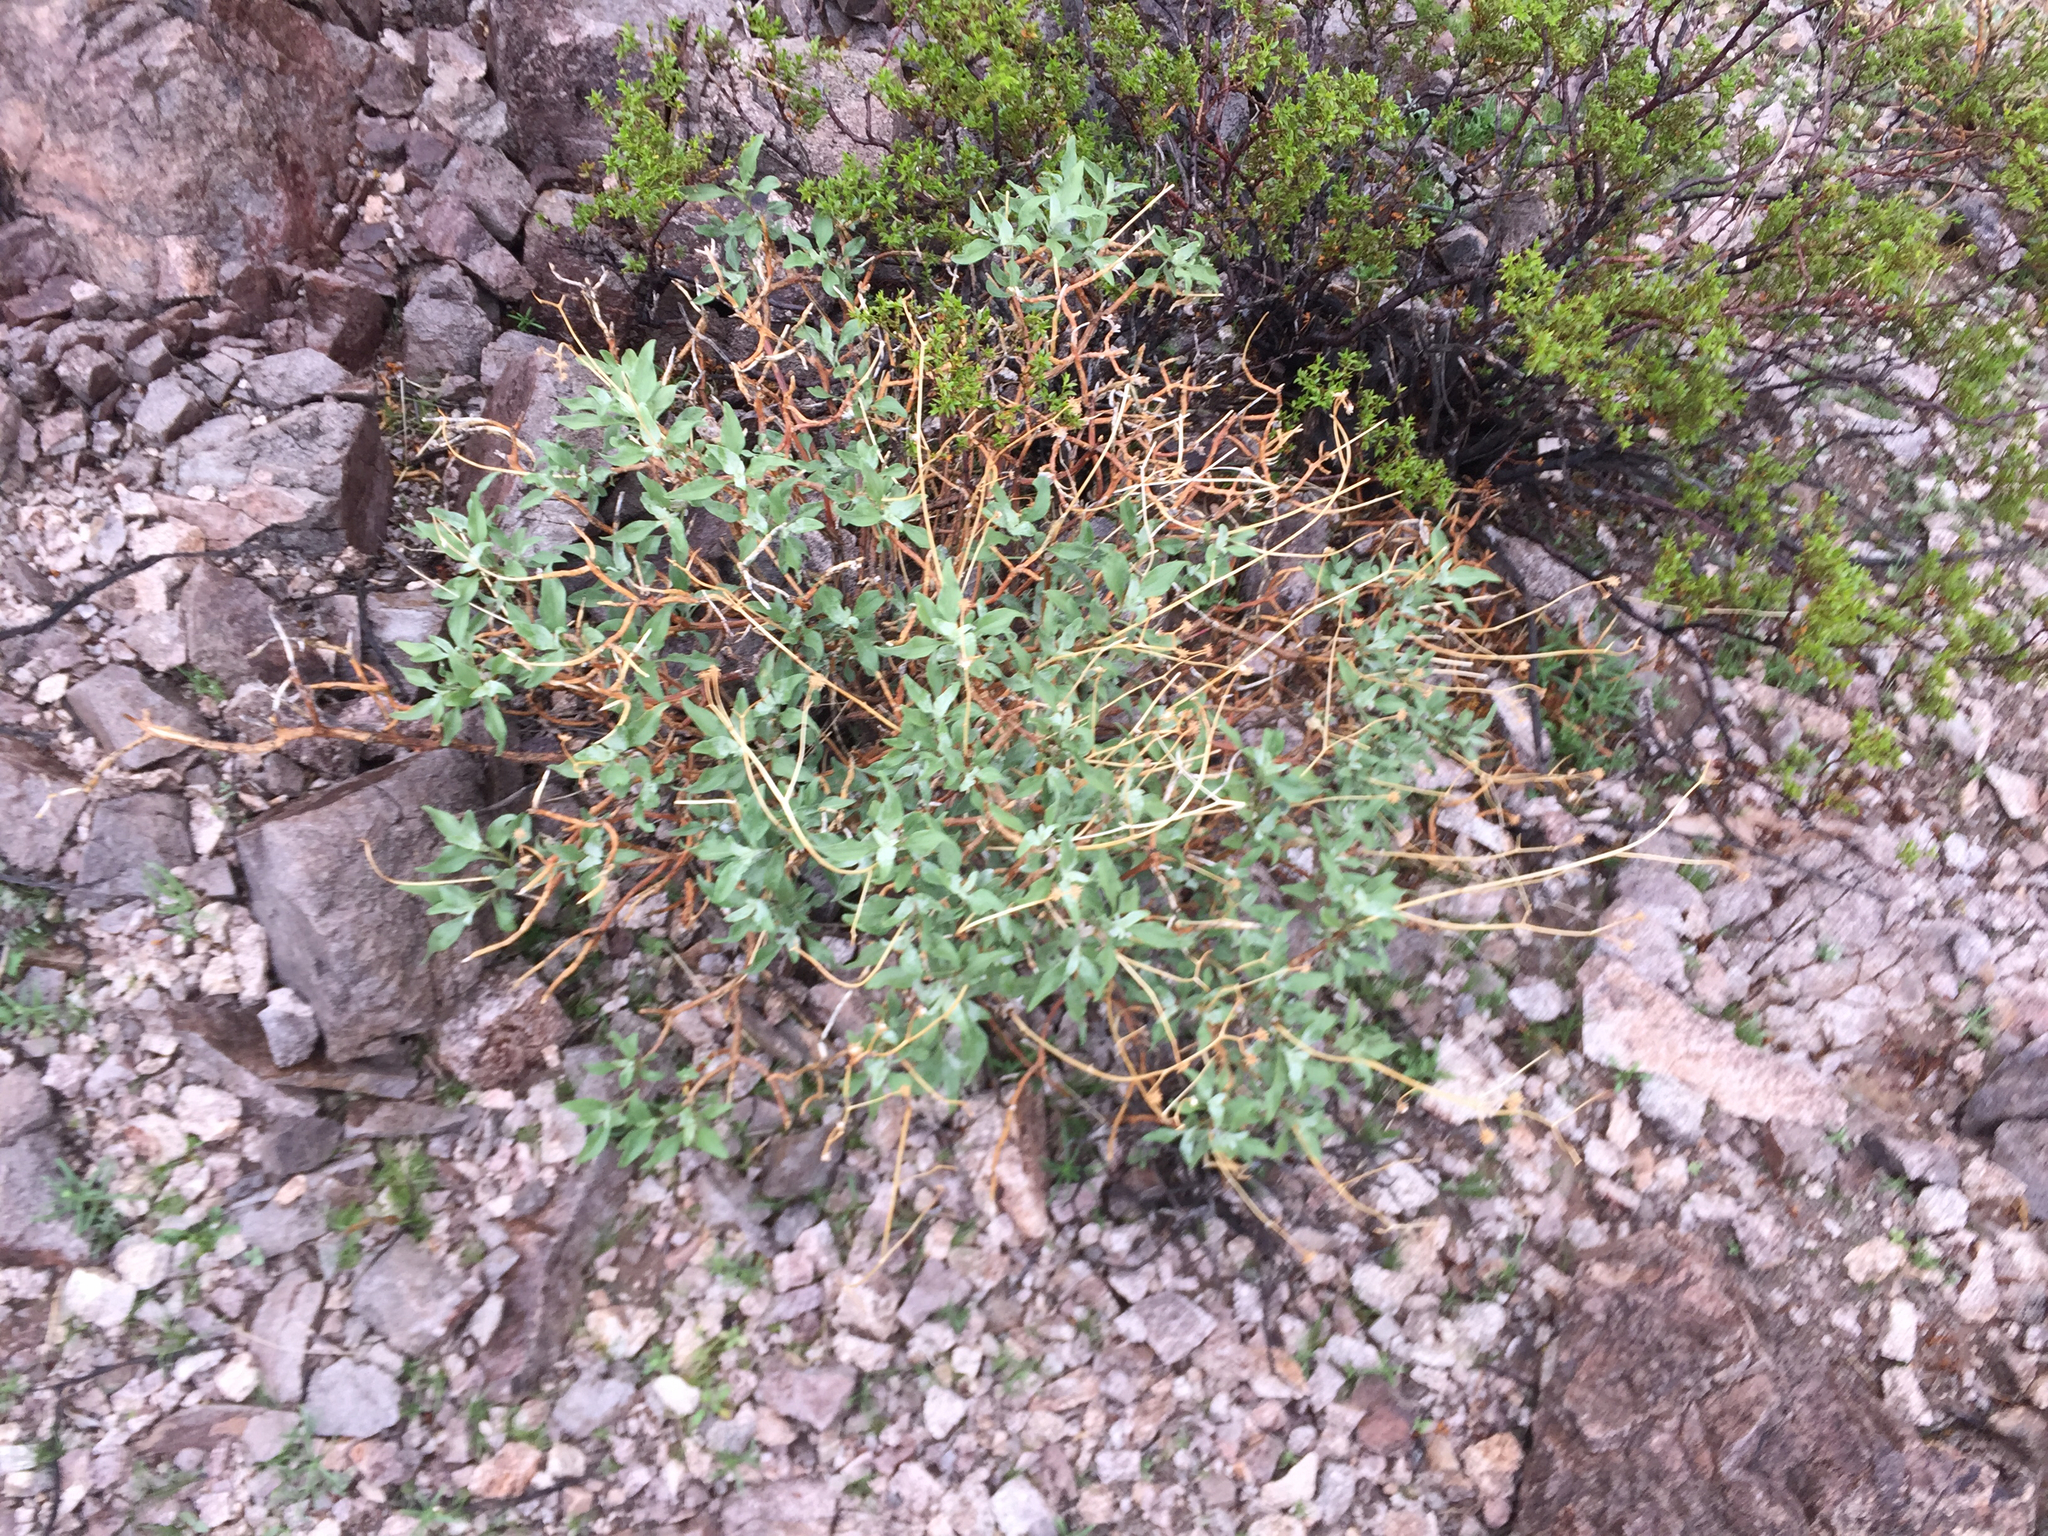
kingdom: Plantae
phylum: Tracheophyta
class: Magnoliopsida
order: Asterales
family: Asteraceae
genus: Encelia
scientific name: Encelia farinosa
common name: Brittlebush
